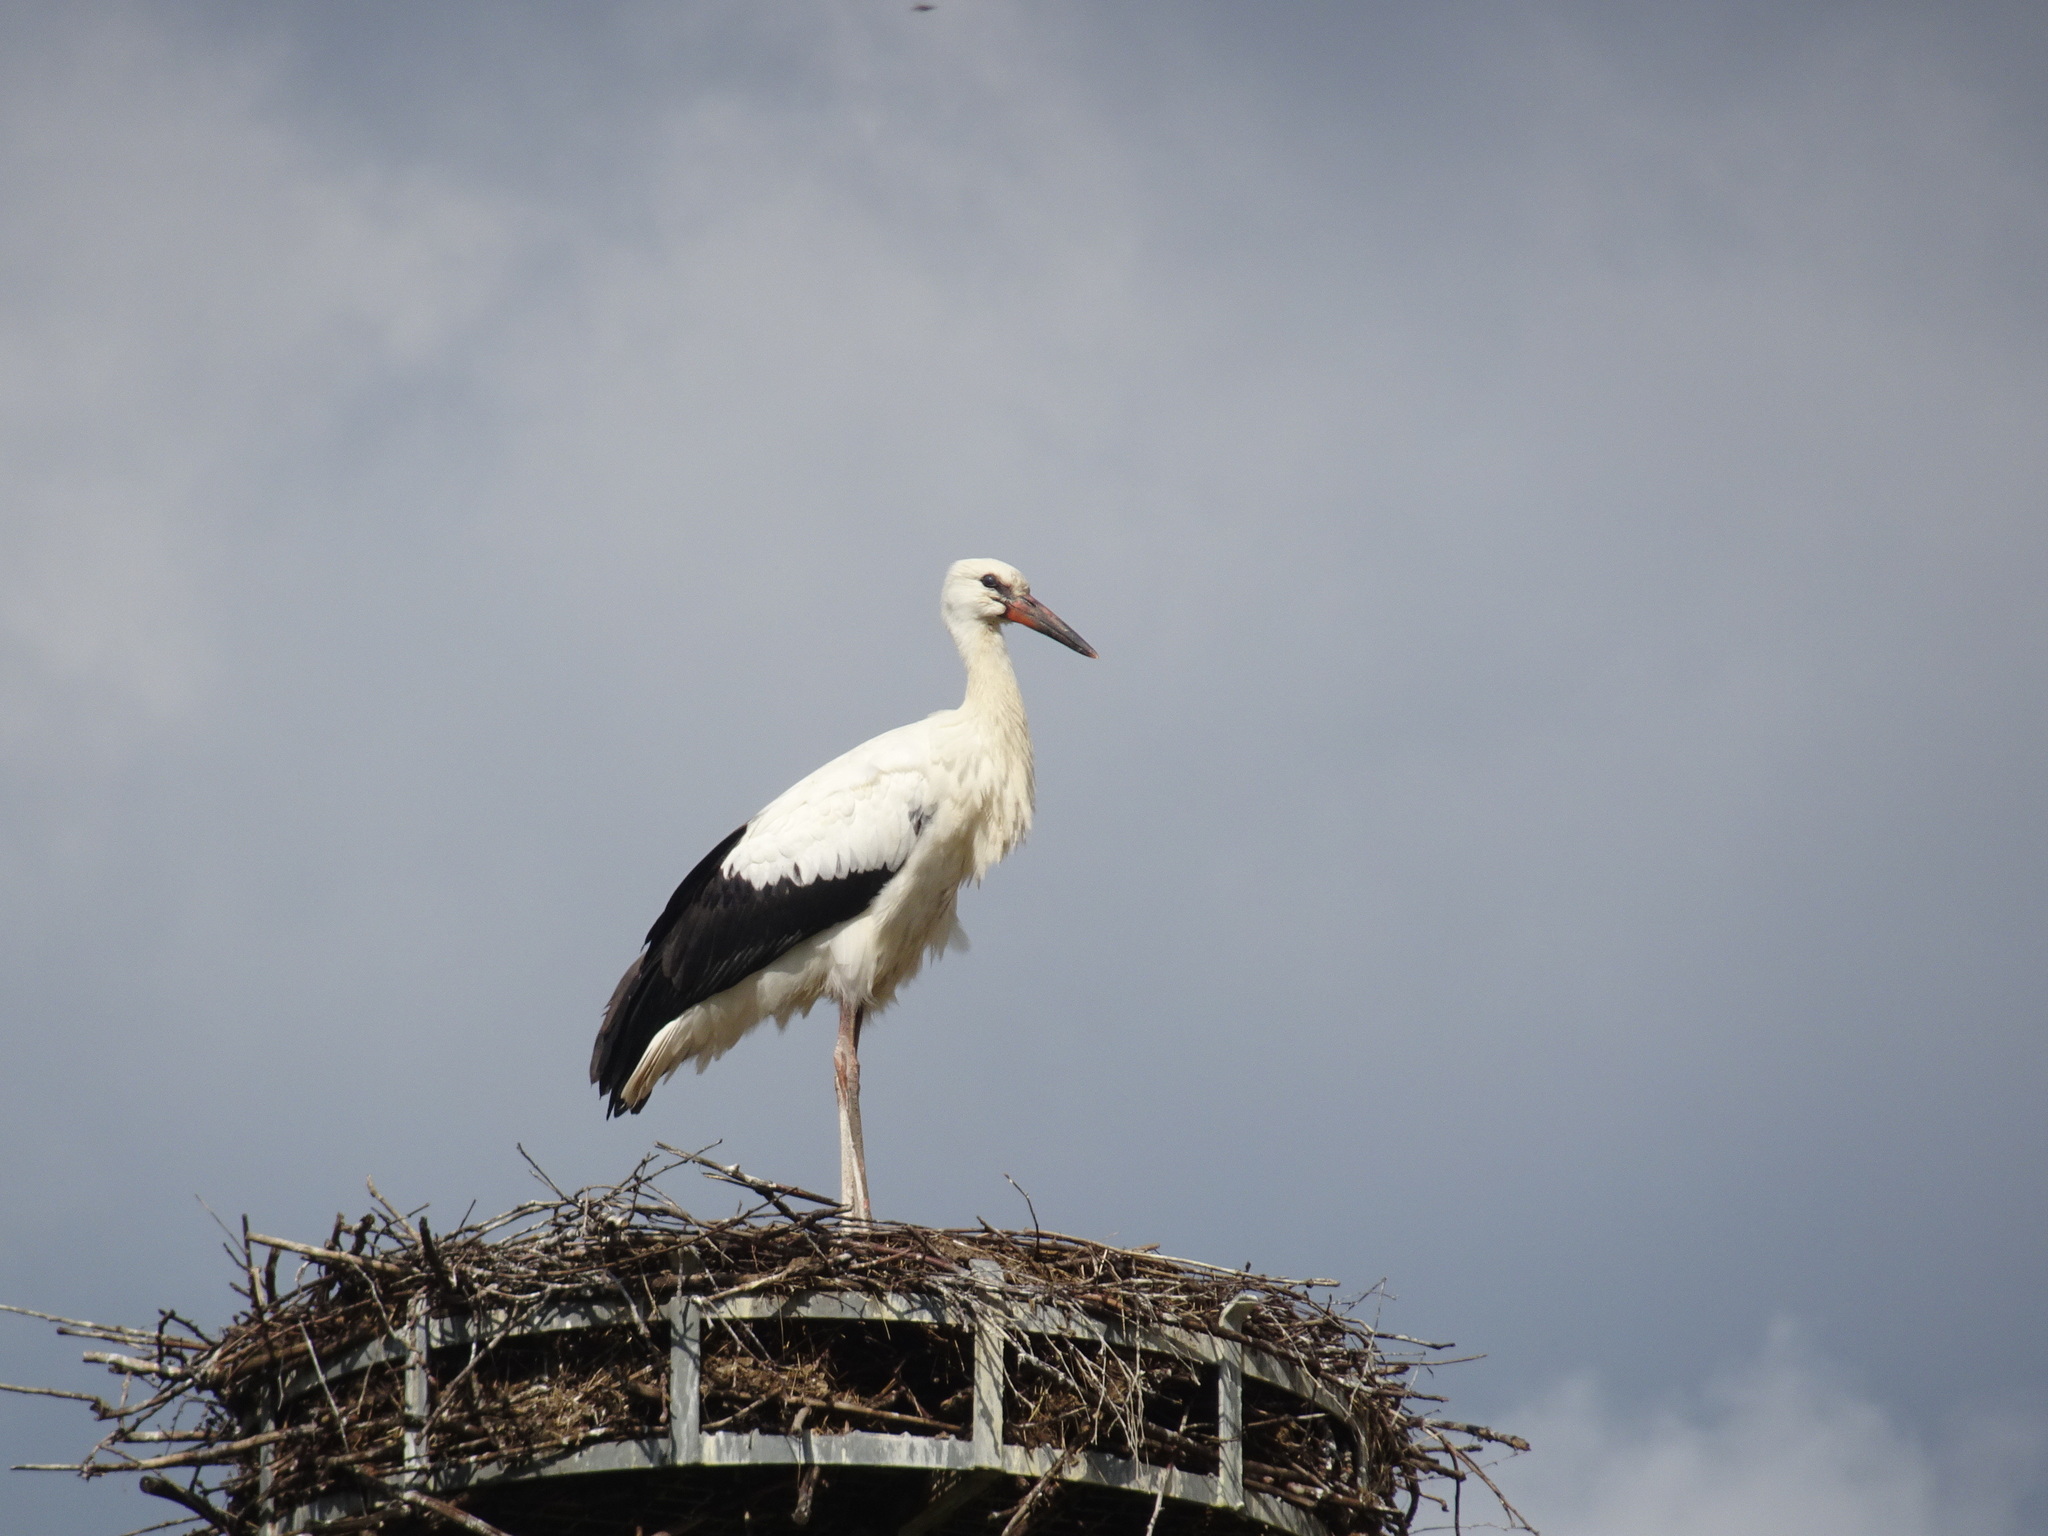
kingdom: Animalia
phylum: Chordata
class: Aves
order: Ciconiiformes
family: Ciconiidae
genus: Ciconia
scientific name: Ciconia ciconia
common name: White stork
